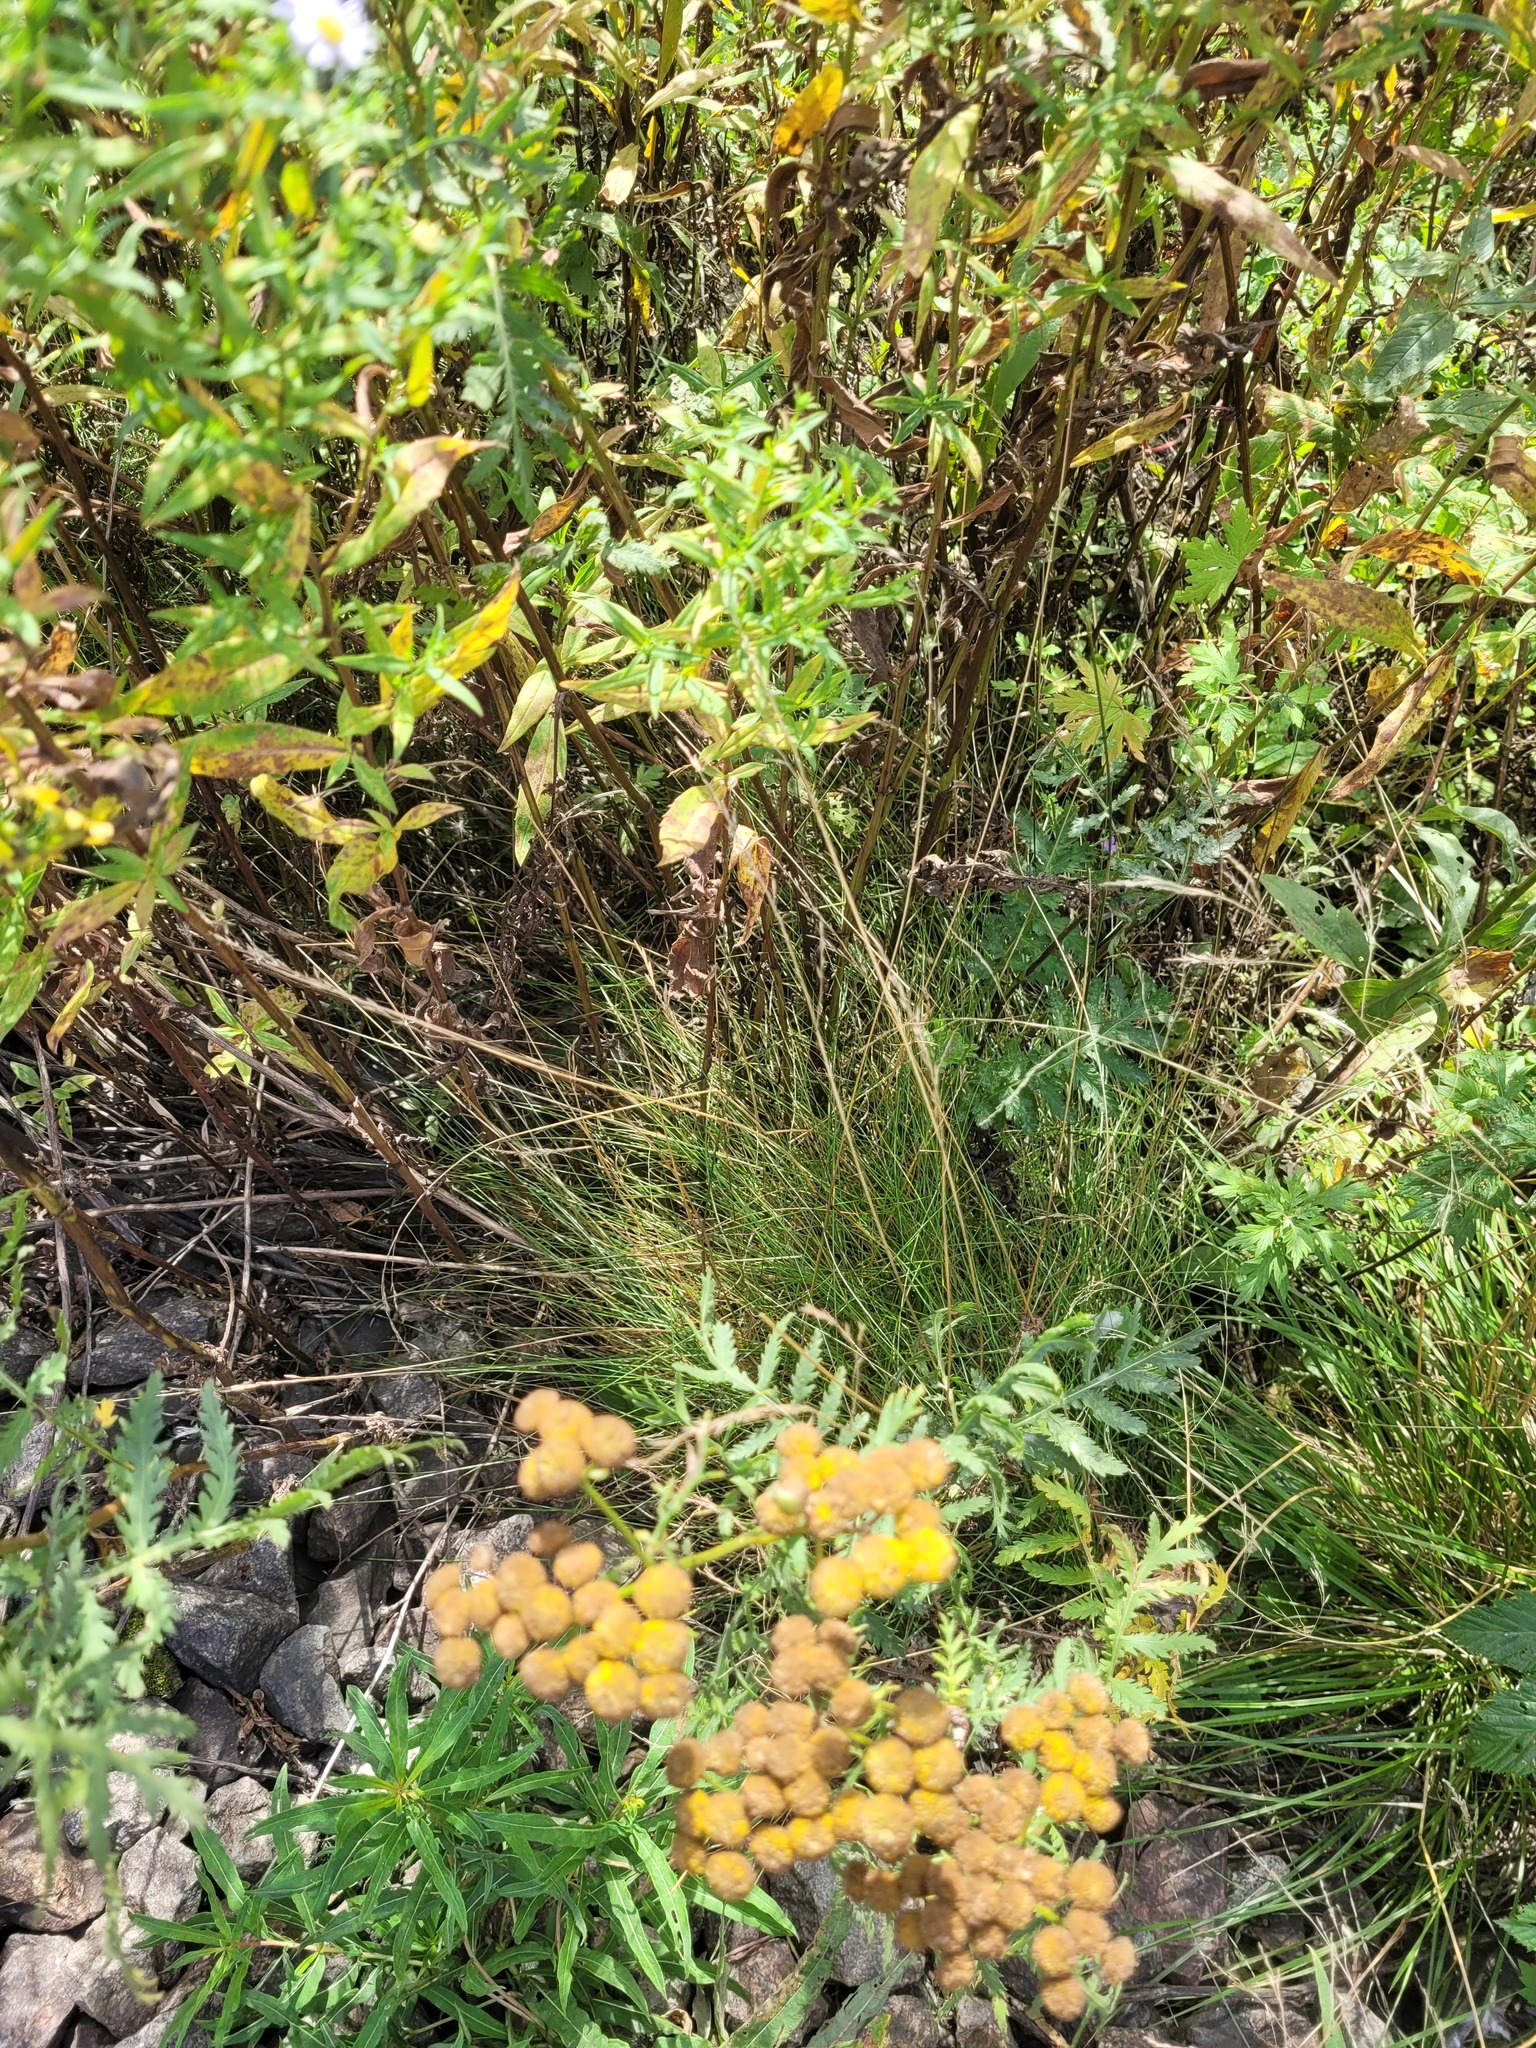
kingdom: Plantae
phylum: Tracheophyta
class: Liliopsida
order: Poales
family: Poaceae
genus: Festuca
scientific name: Festuca rubra
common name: Red fescue
